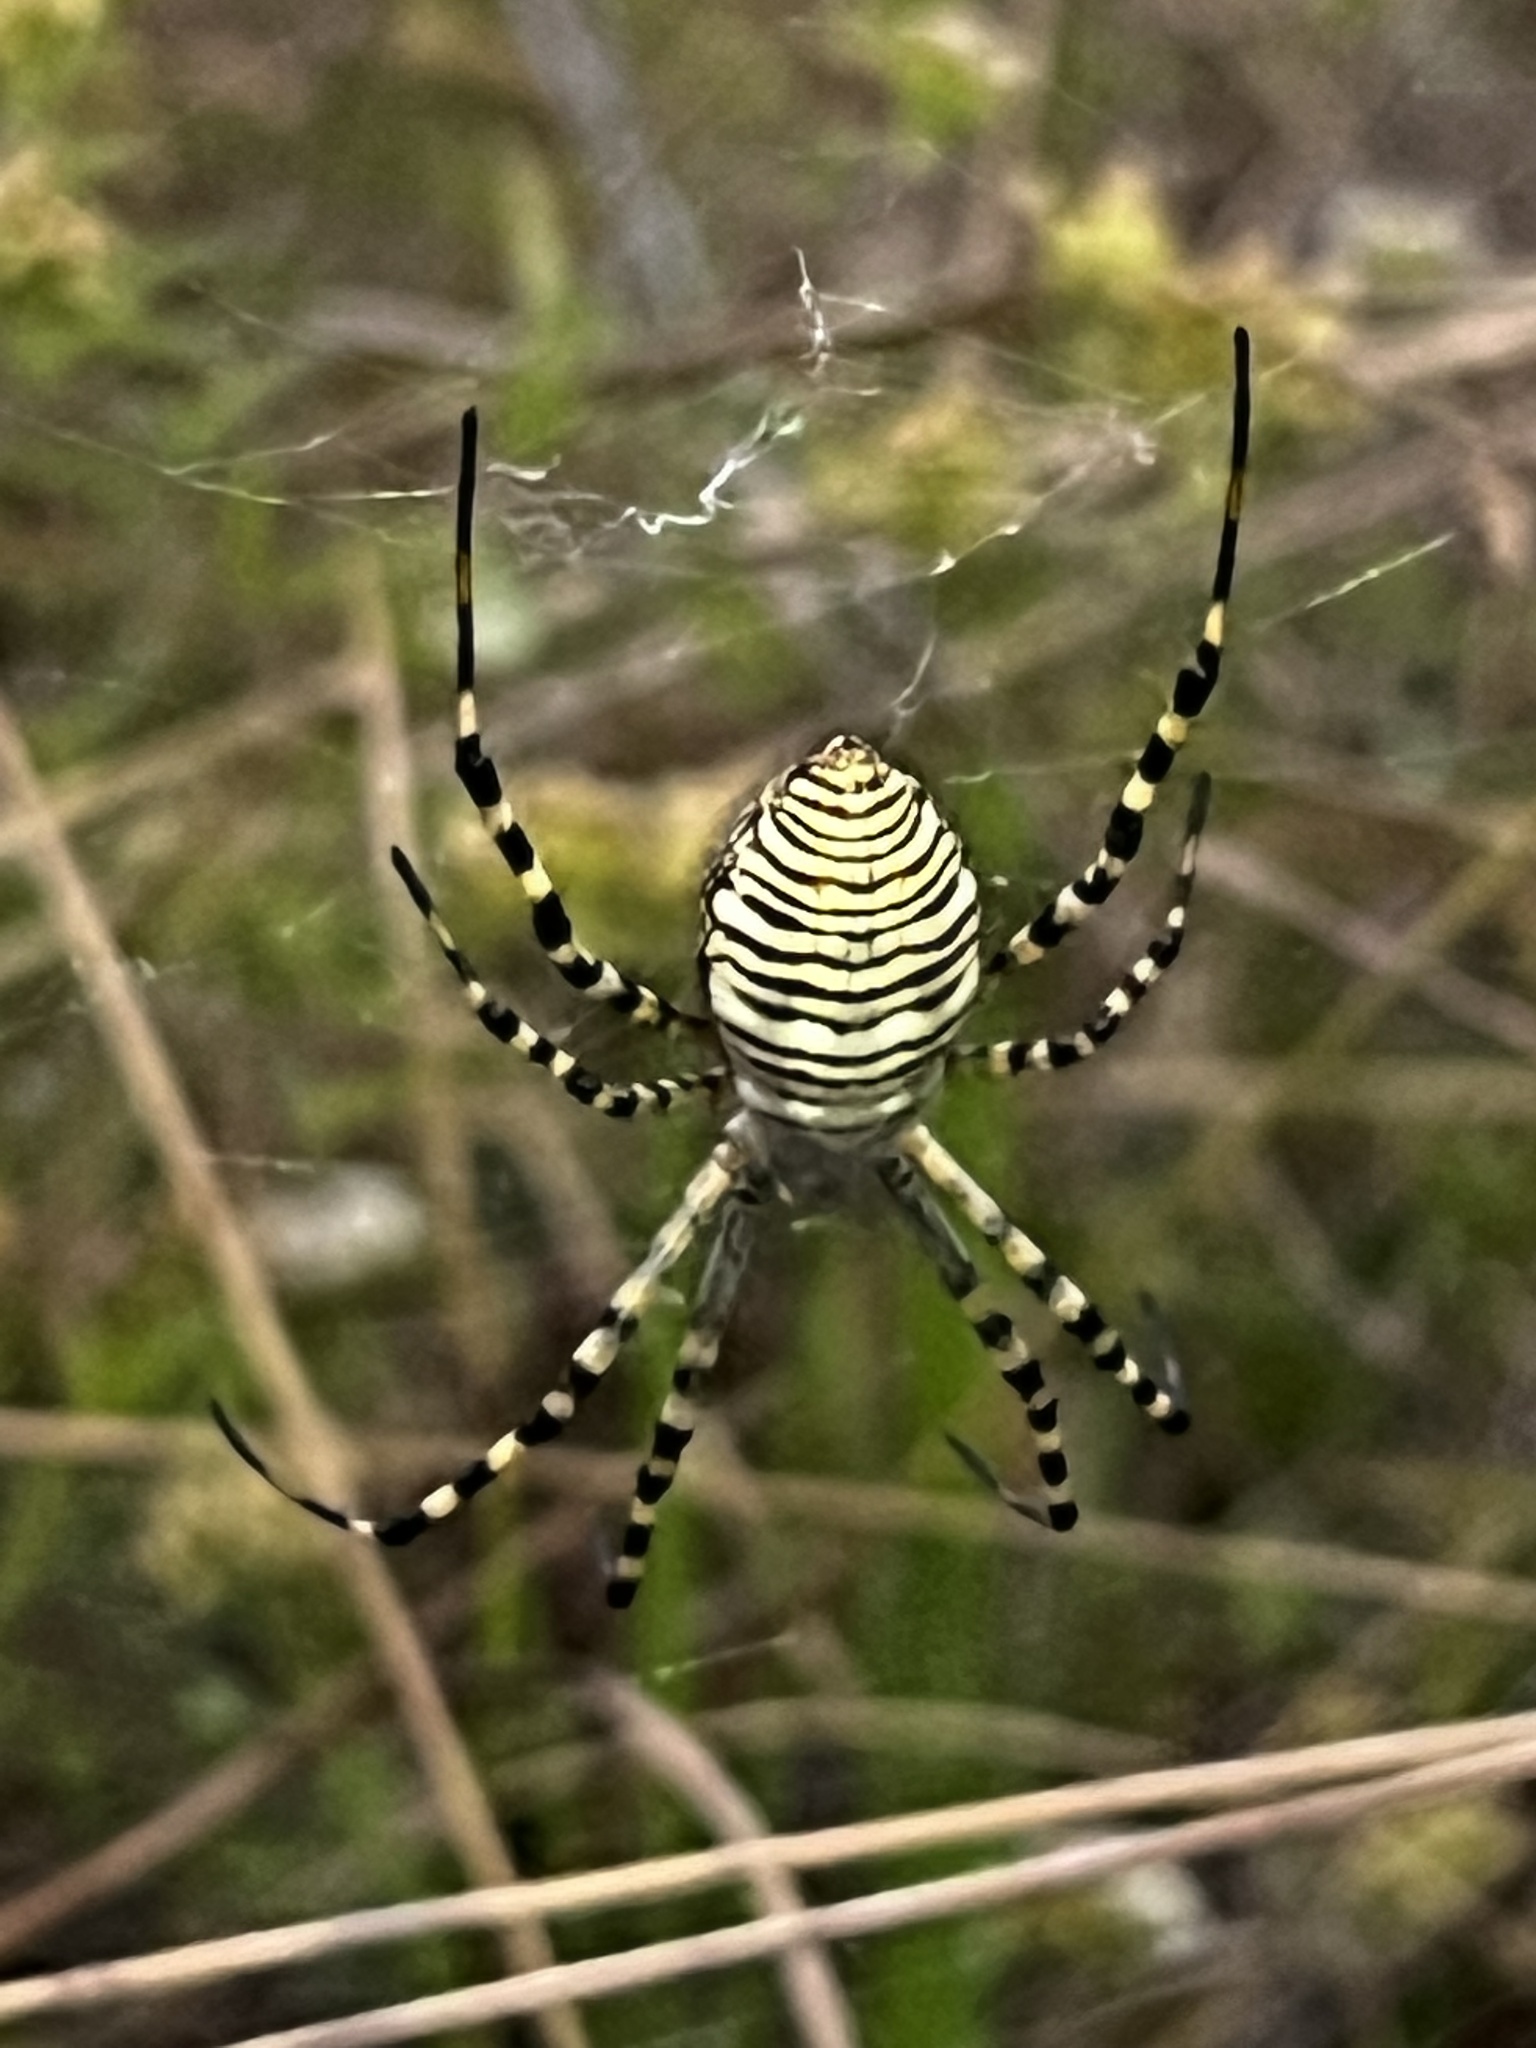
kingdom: Animalia
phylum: Arthropoda
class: Arachnida
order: Araneae
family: Araneidae
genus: Argiope
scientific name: Argiope trifasciata
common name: Banded garden spider
